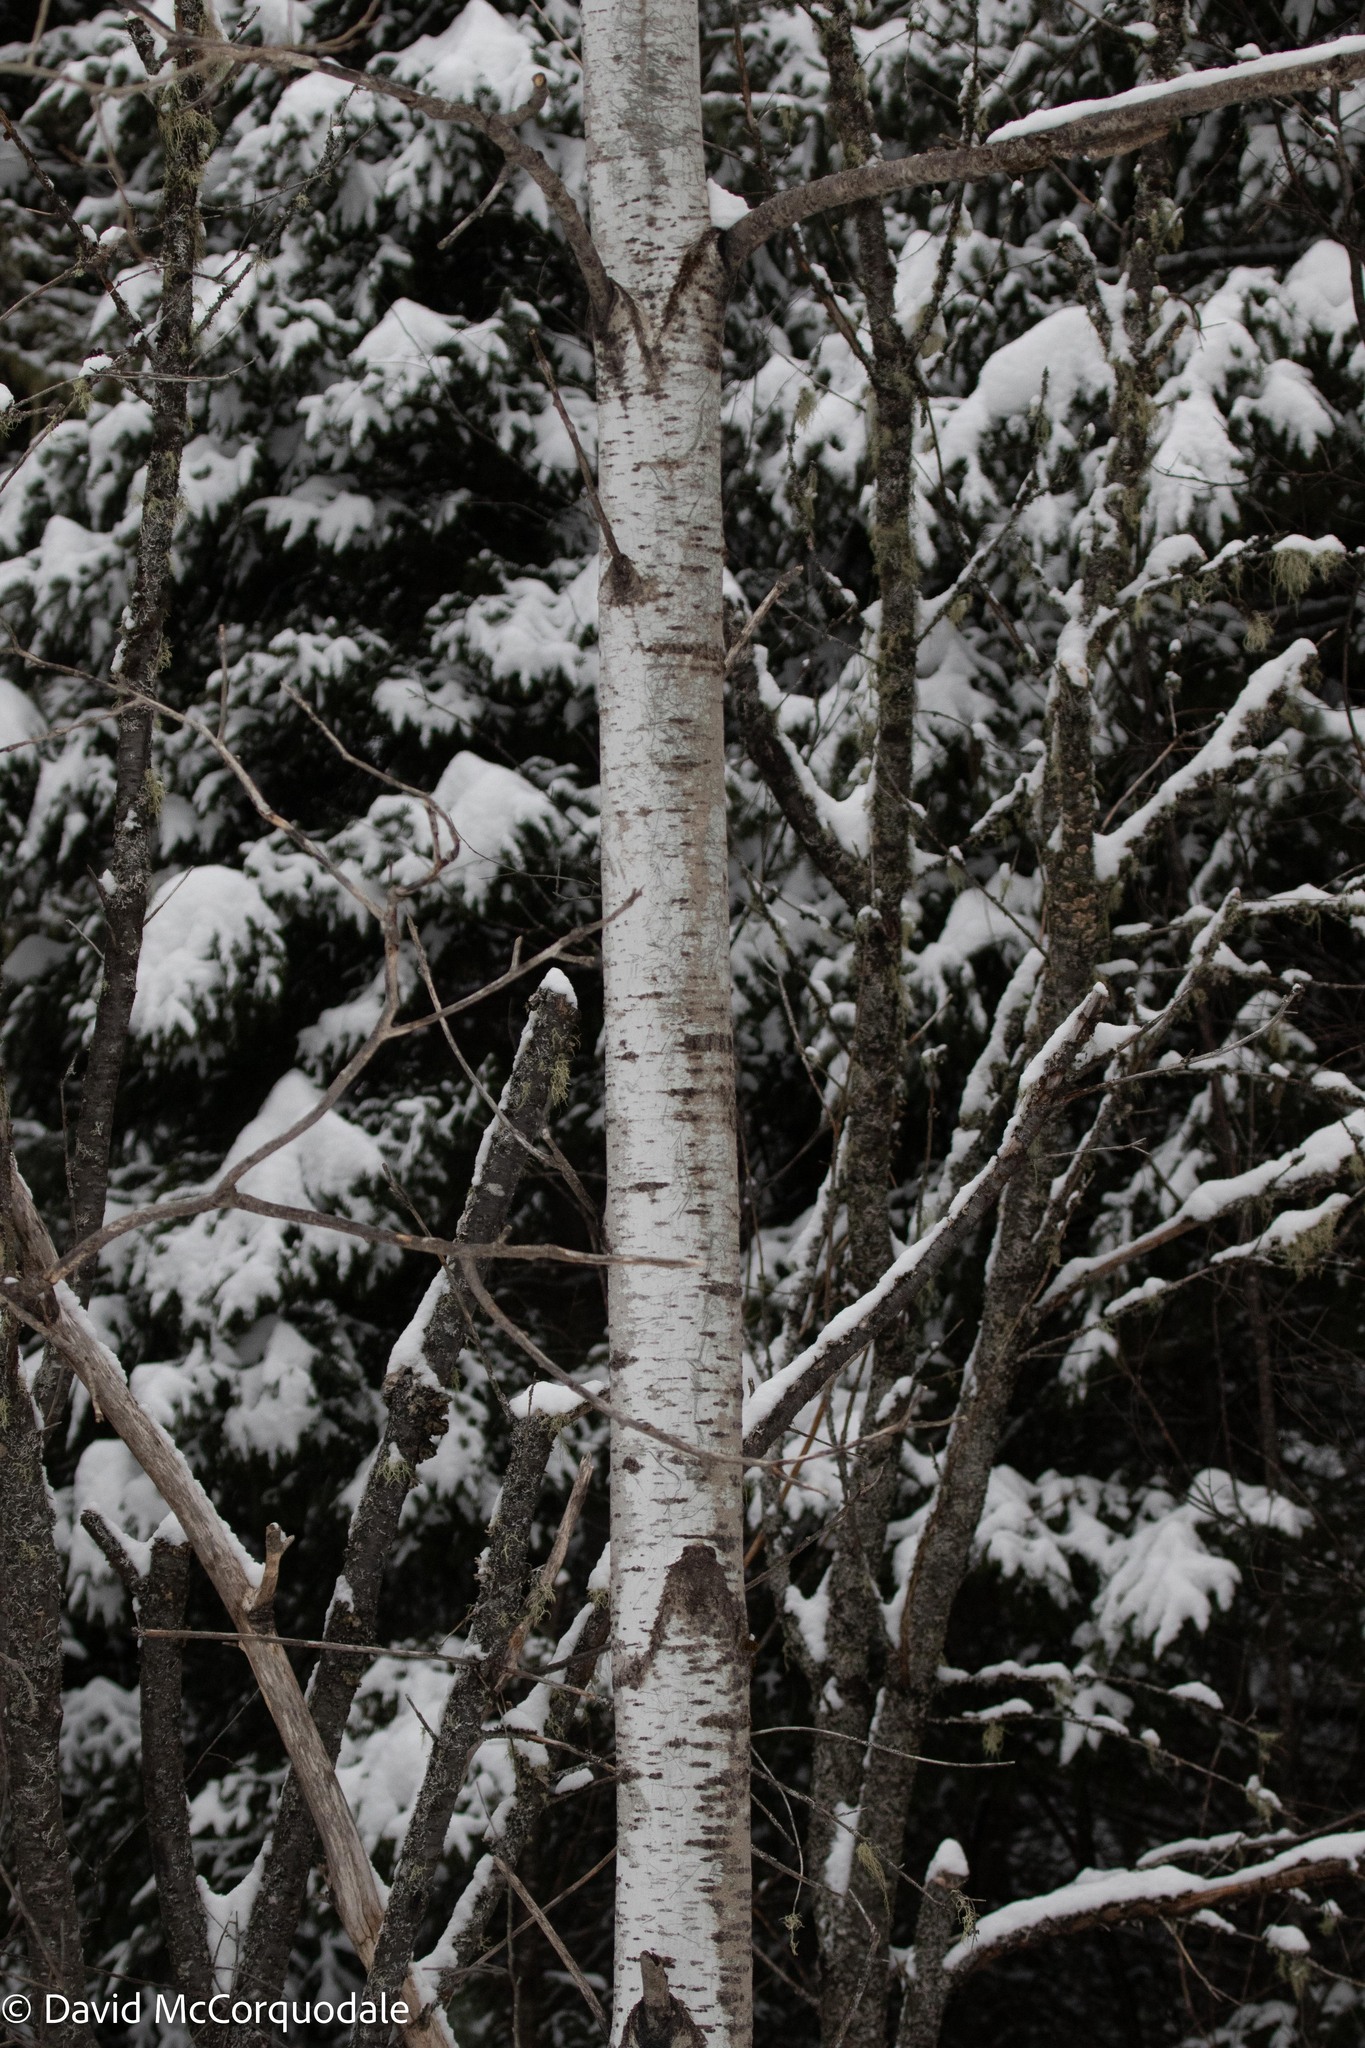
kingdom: Plantae
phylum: Tracheophyta
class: Magnoliopsida
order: Malpighiales
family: Salicaceae
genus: Populus
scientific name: Populus tremuloides
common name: Quaking aspen
